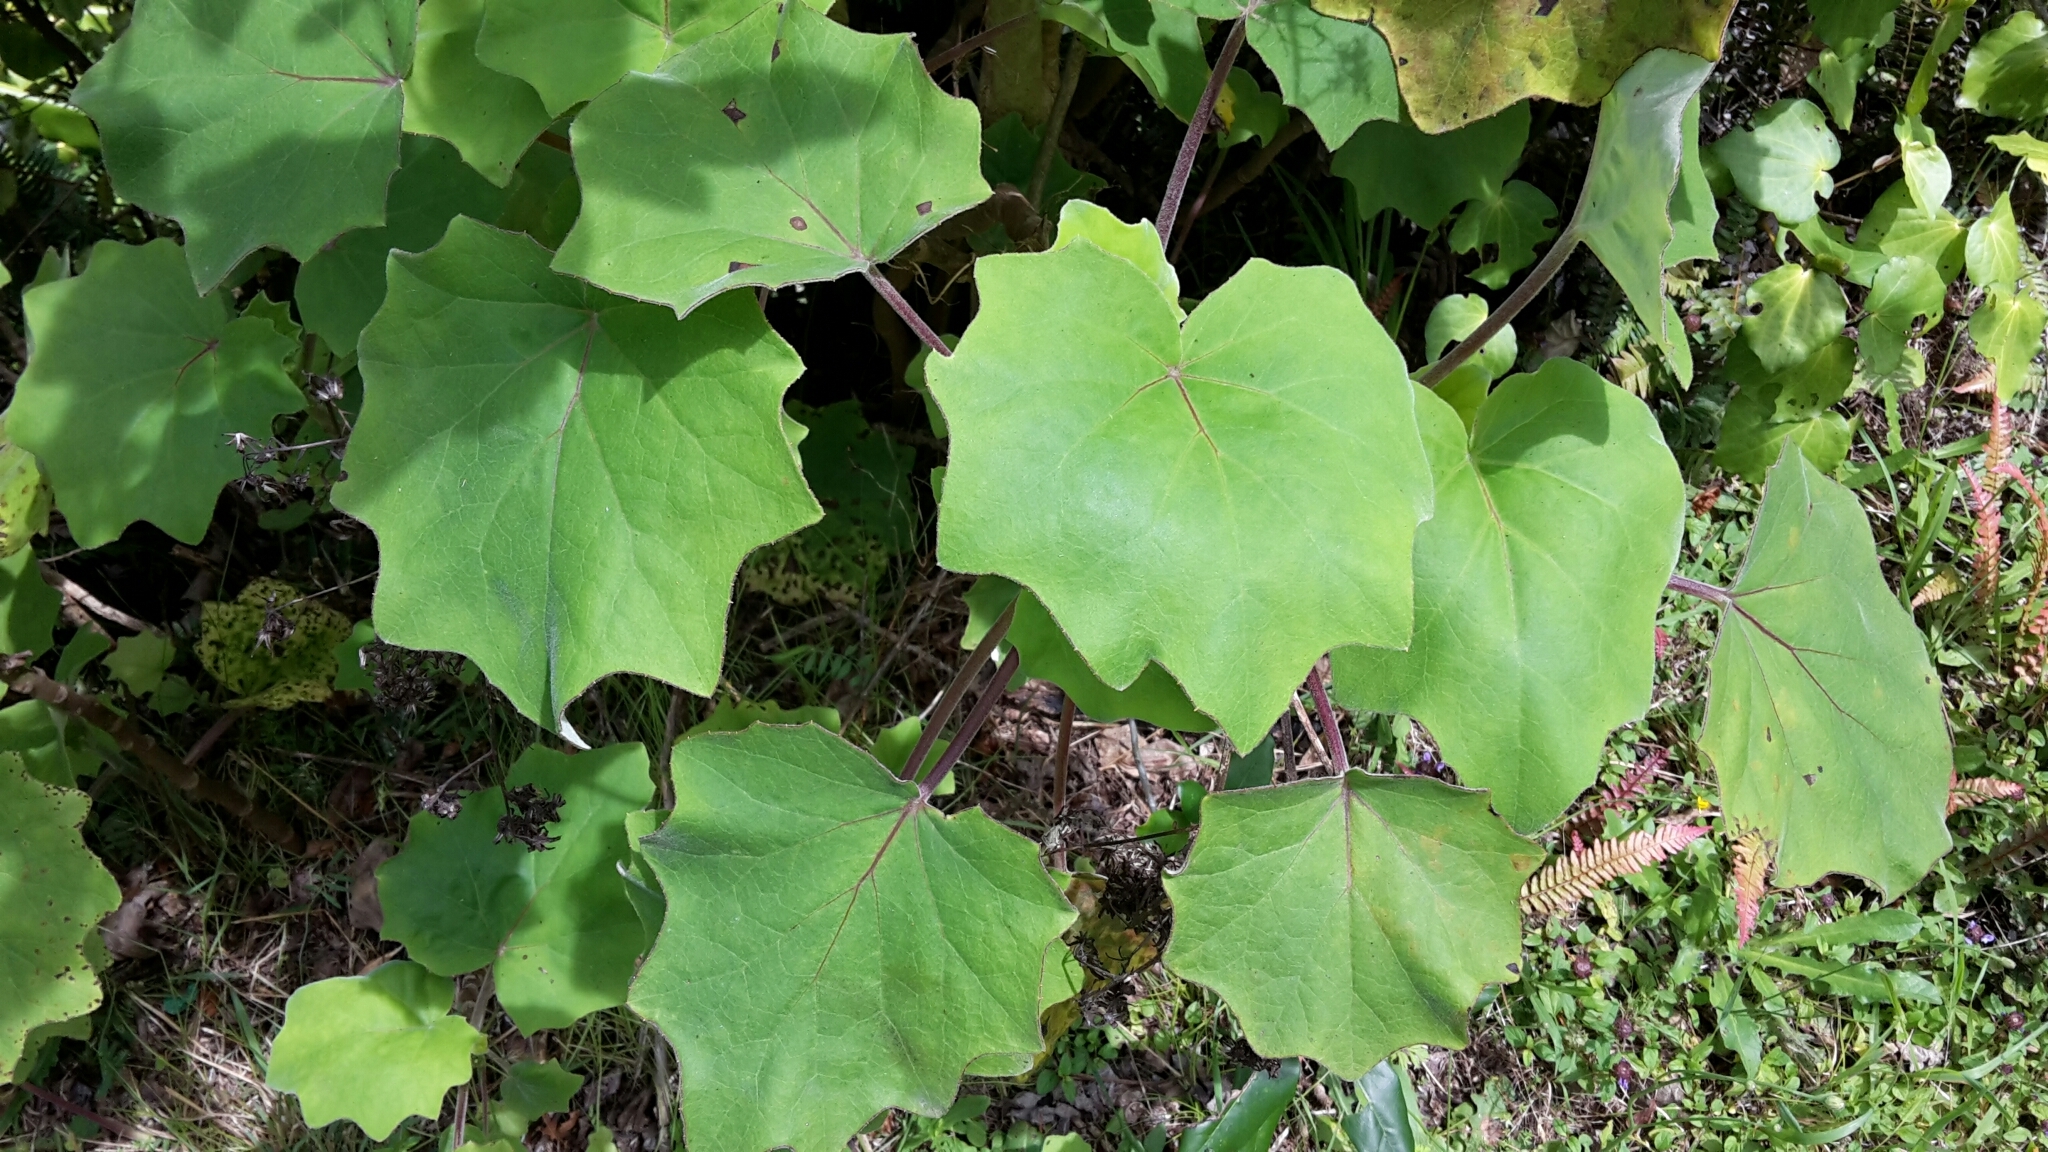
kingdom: Plantae
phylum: Tracheophyta
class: Magnoliopsida
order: Asterales
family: Asteraceae
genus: Roldana
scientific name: Roldana petasitis
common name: California-geranium
